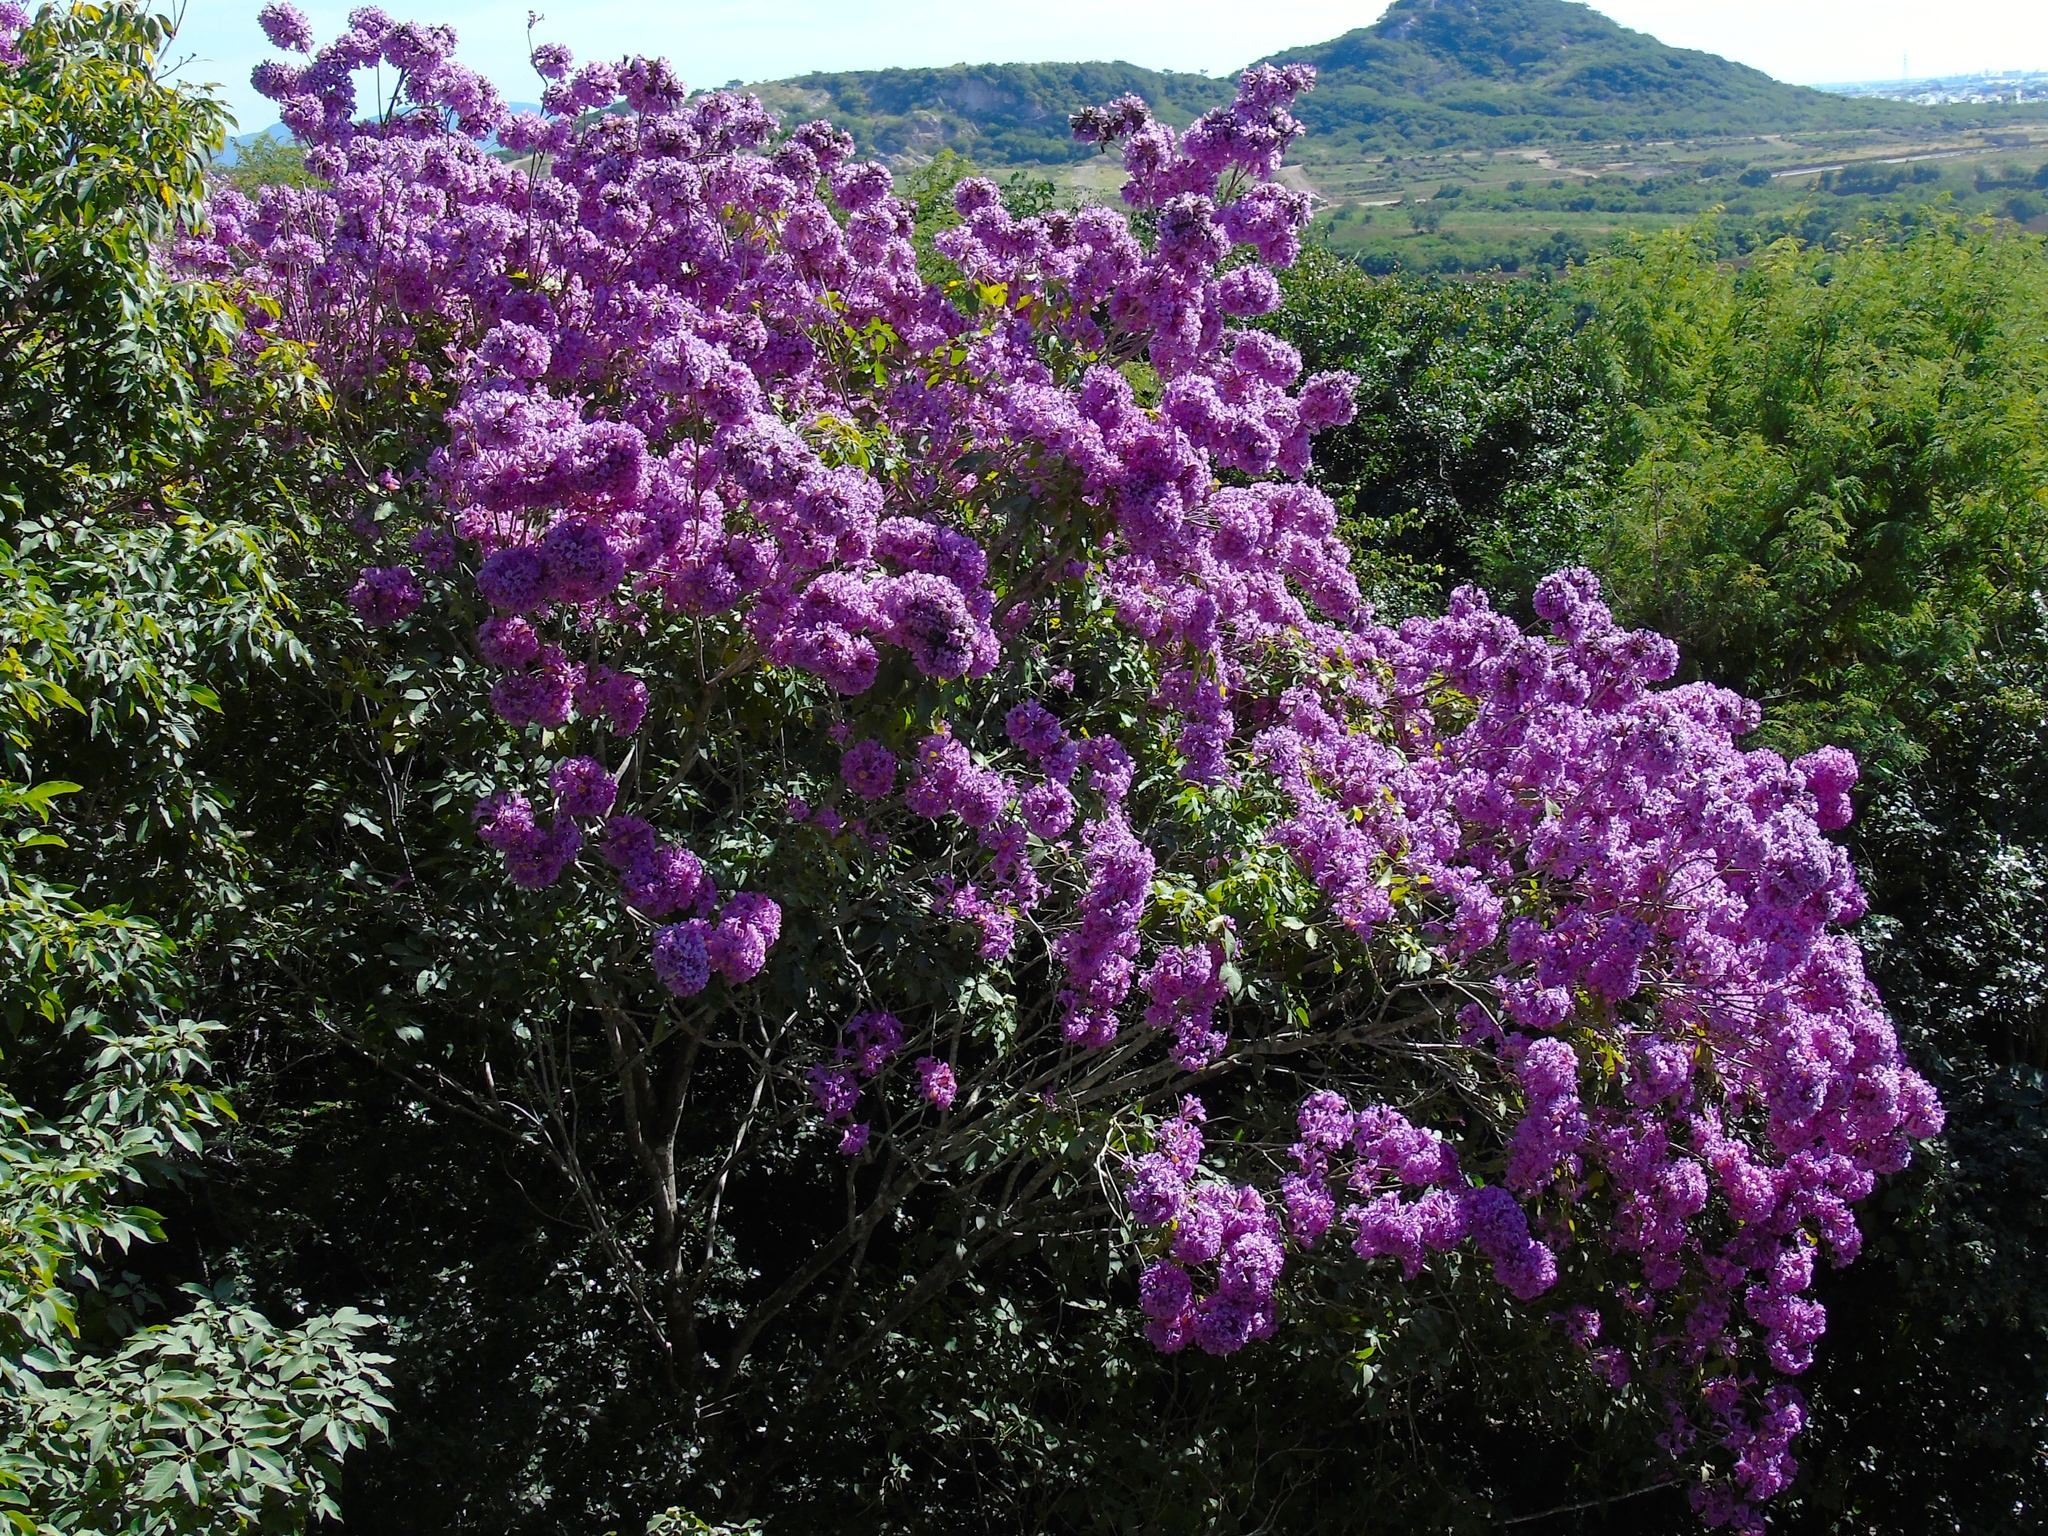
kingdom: Plantae
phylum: Tracheophyta
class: Magnoliopsida
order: Lamiales
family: Bignoniaceae
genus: Handroanthus
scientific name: Handroanthus impetiginosum
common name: Pink trumpet tree
